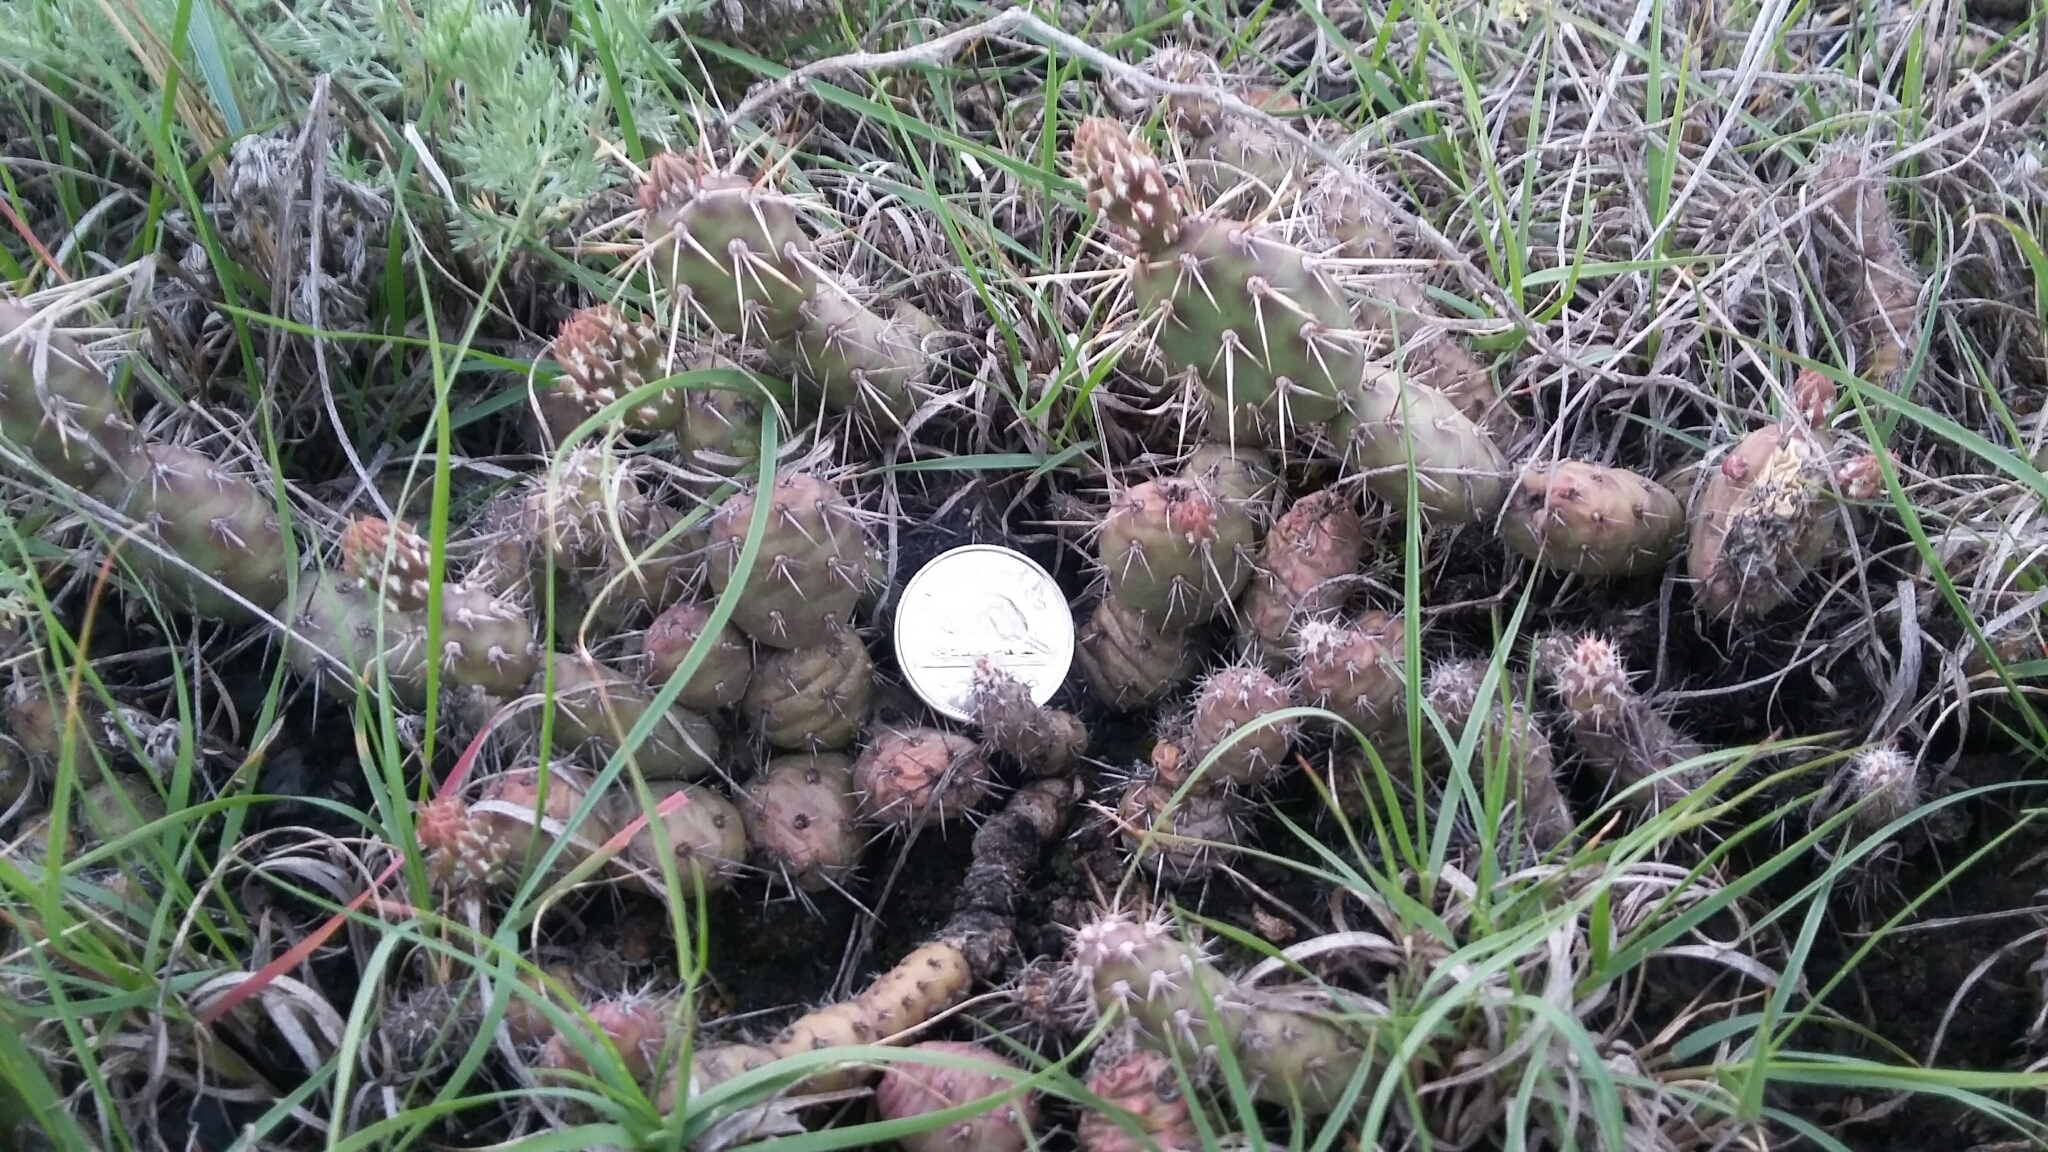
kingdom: Plantae
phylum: Tracheophyta
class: Magnoliopsida
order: Caryophyllales
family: Cactaceae
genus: Opuntia
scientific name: Opuntia fragilis
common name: Brittle cactus
